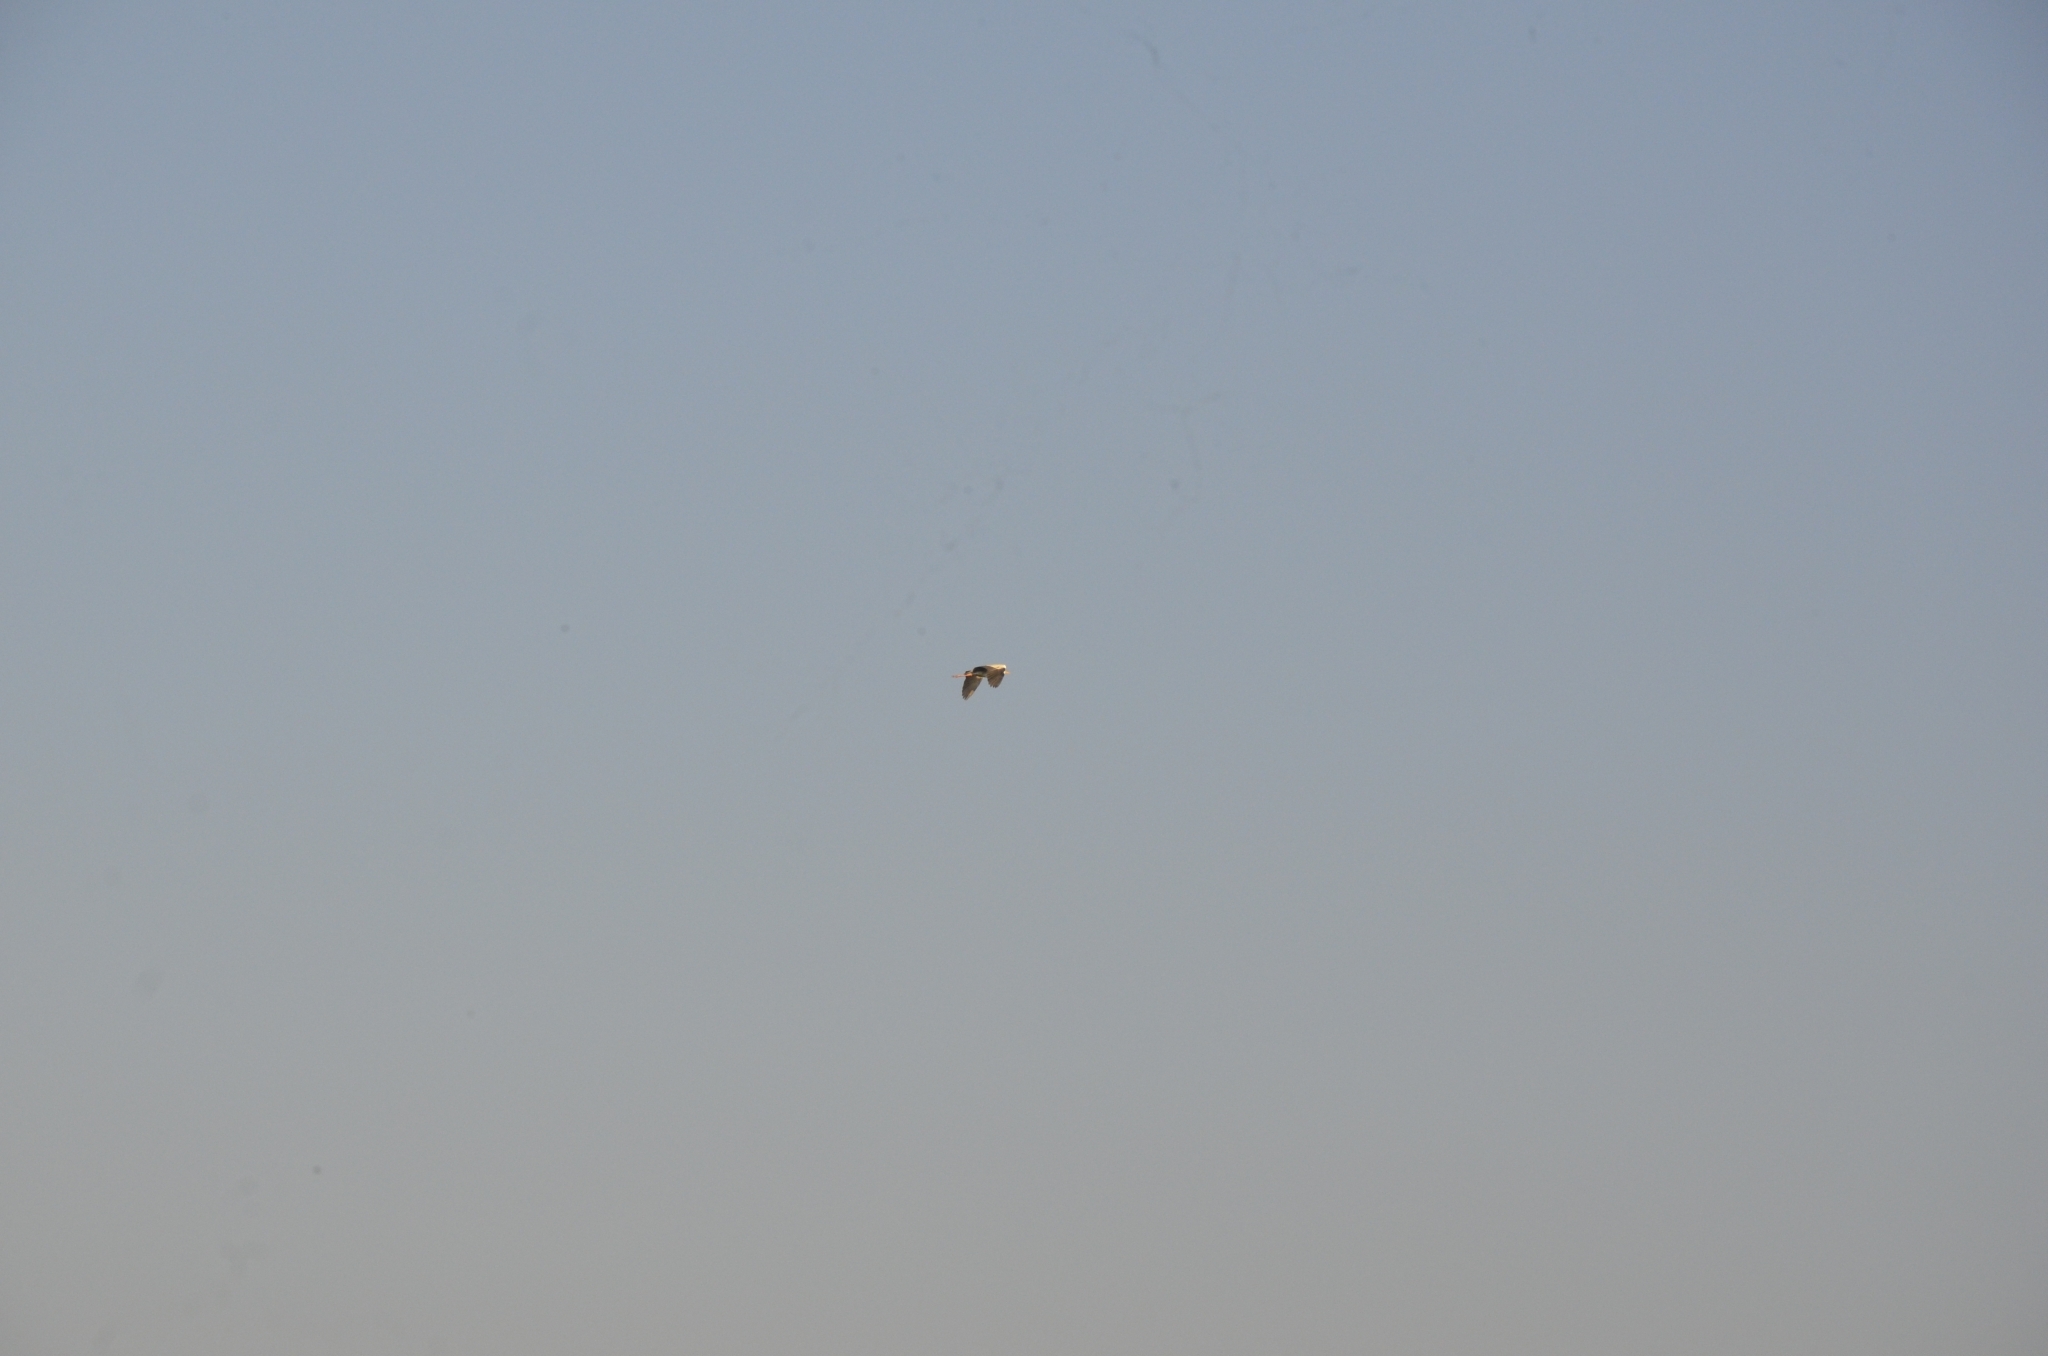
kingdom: Animalia
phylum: Chordata
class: Aves
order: Pelecaniformes
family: Ardeidae
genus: Ardea
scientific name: Ardea cinerea
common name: Grey heron
